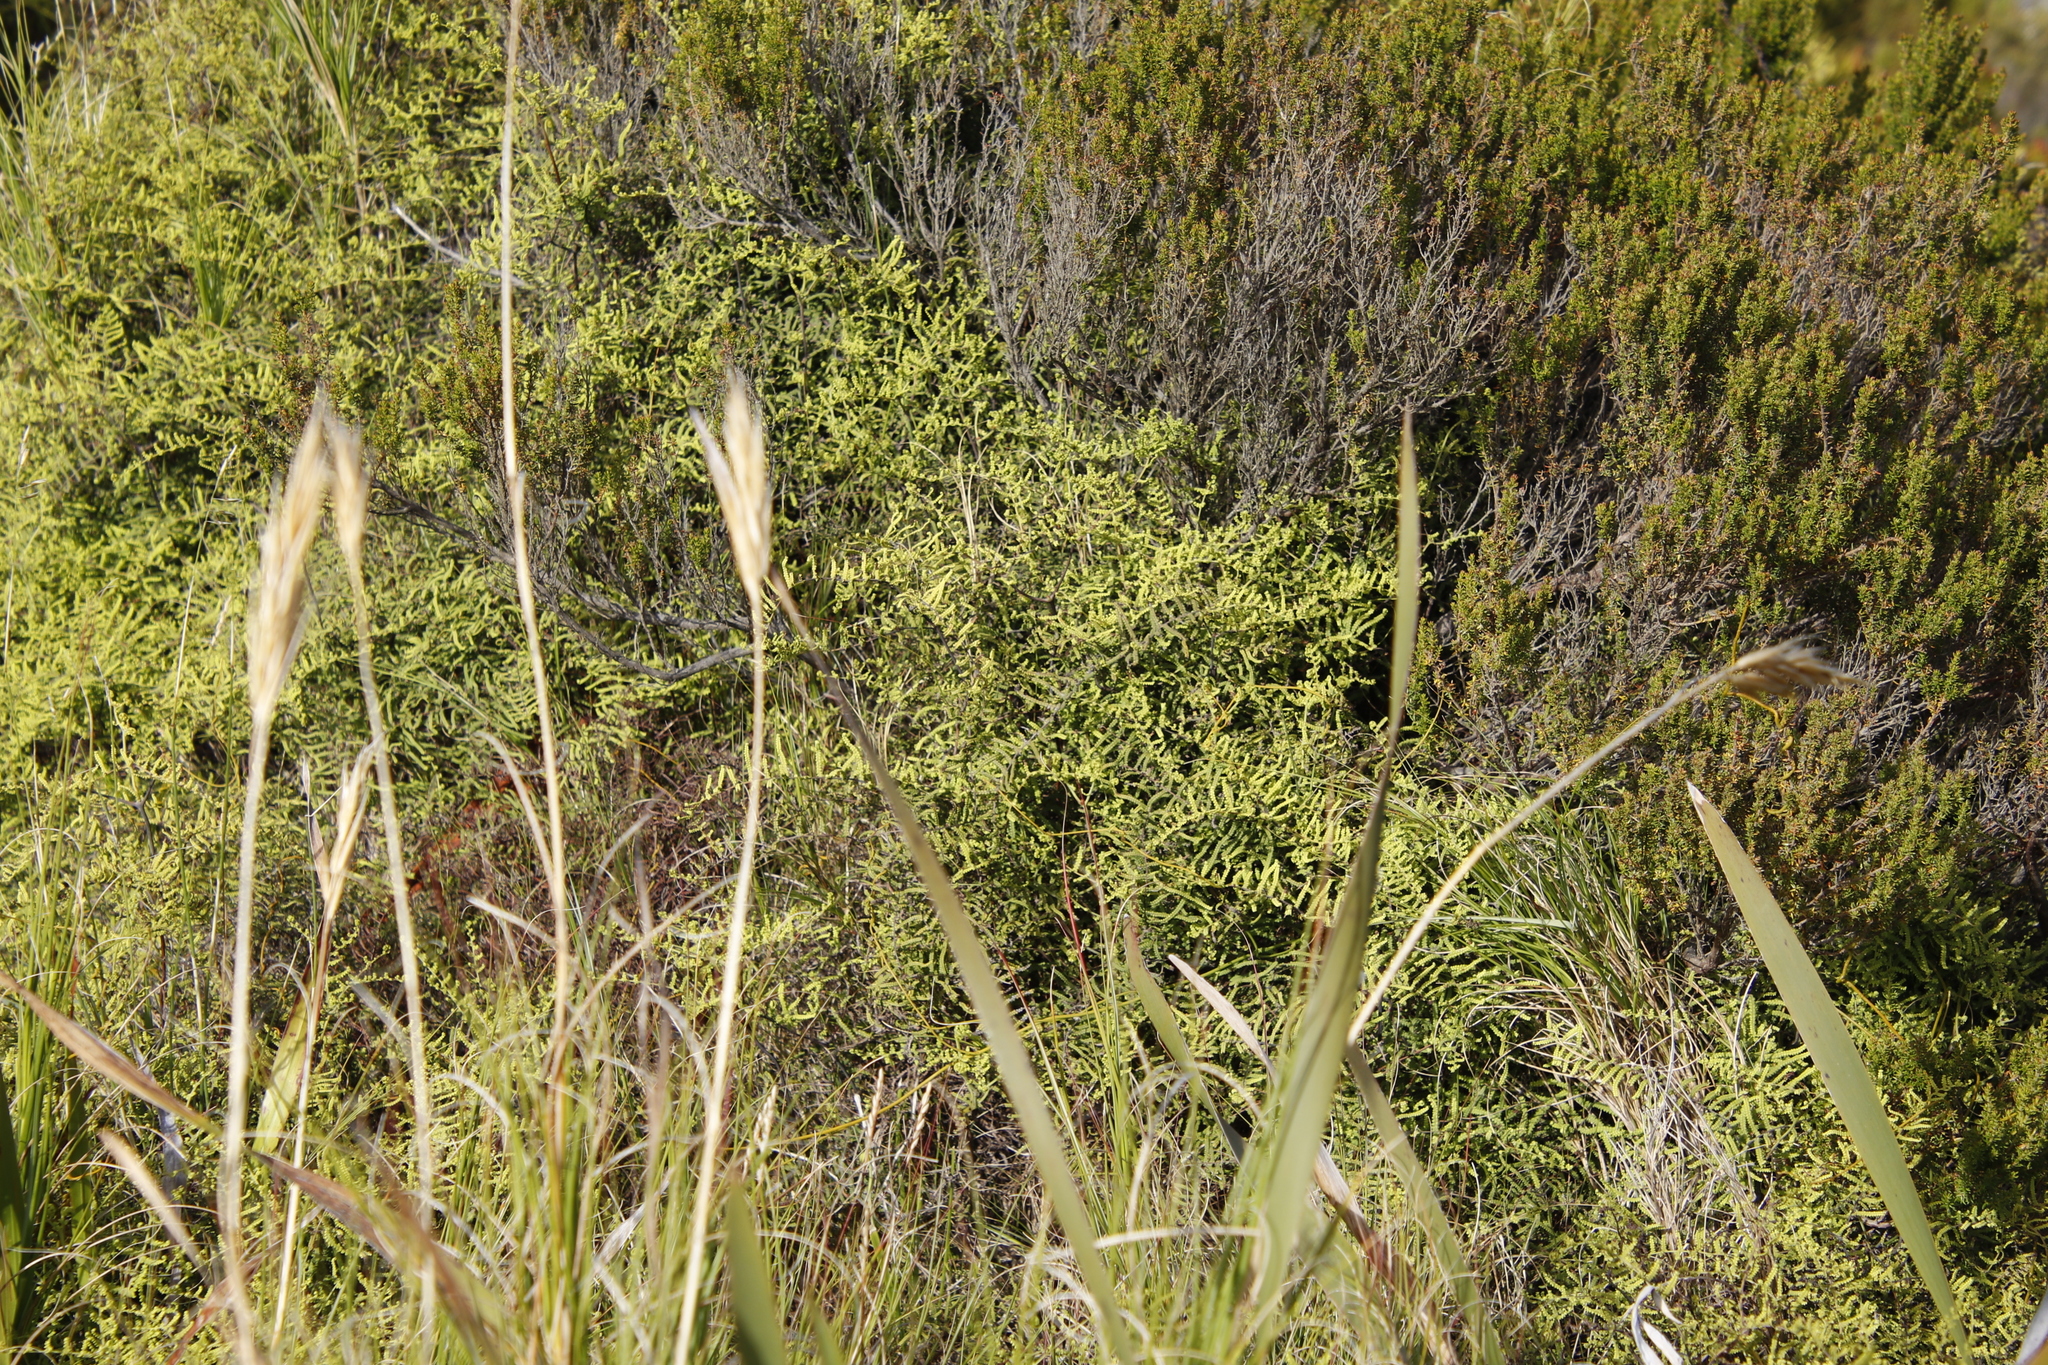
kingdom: Plantae
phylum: Tracheophyta
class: Polypodiopsida
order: Gleicheniales
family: Gleicheniaceae
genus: Gleichenia
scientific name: Gleichenia polypodioides
